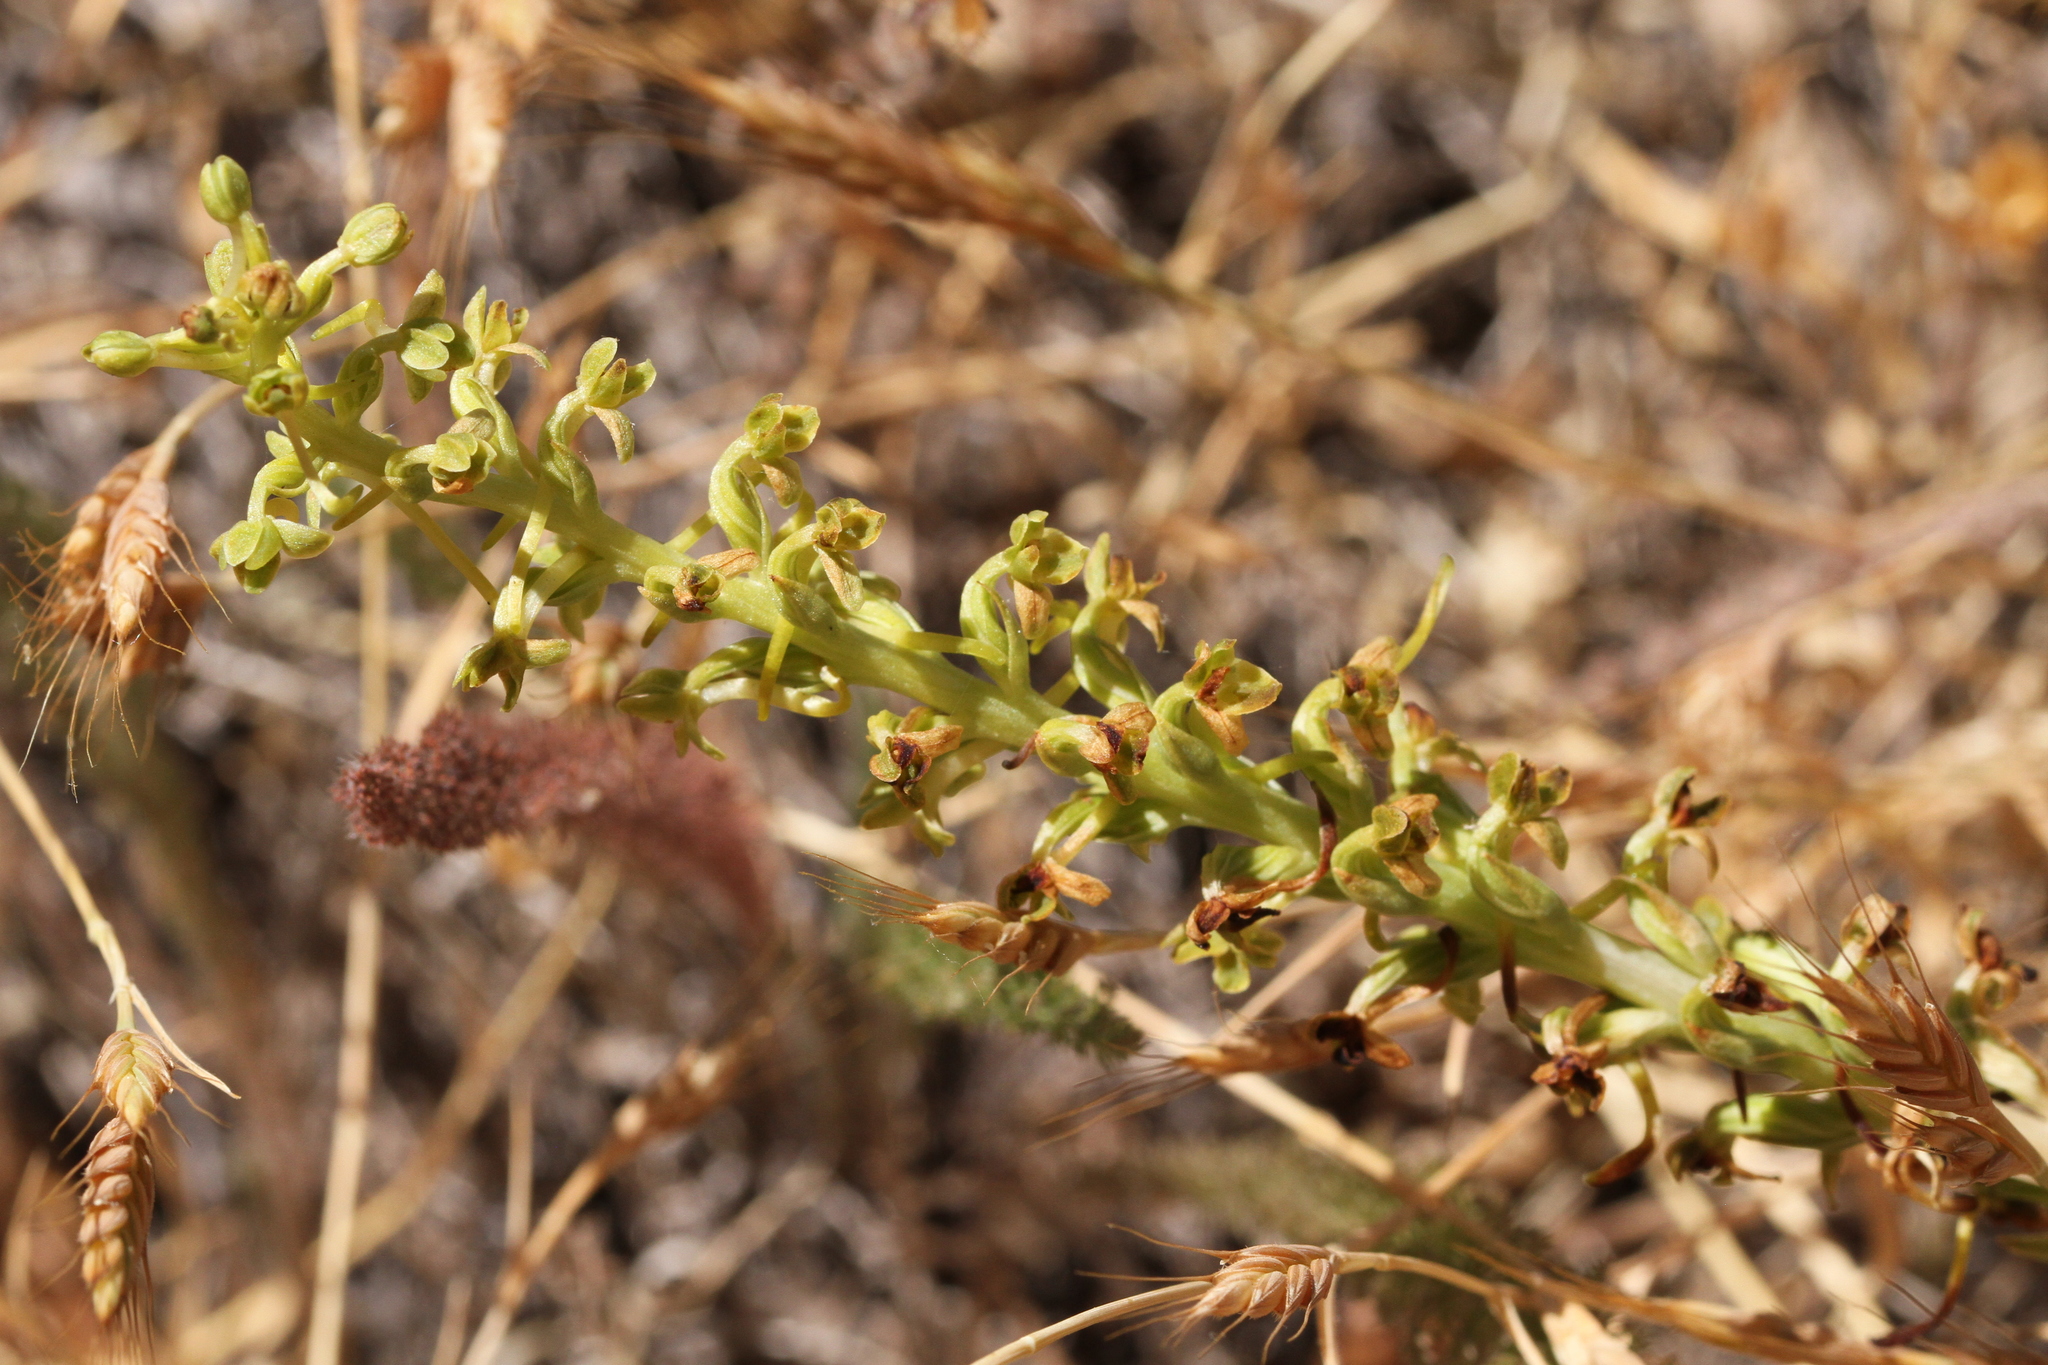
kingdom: Plantae
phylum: Tracheophyta
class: Liliopsida
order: Asparagales
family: Orchidaceae
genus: Platanthera
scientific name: Platanthera michaelii
